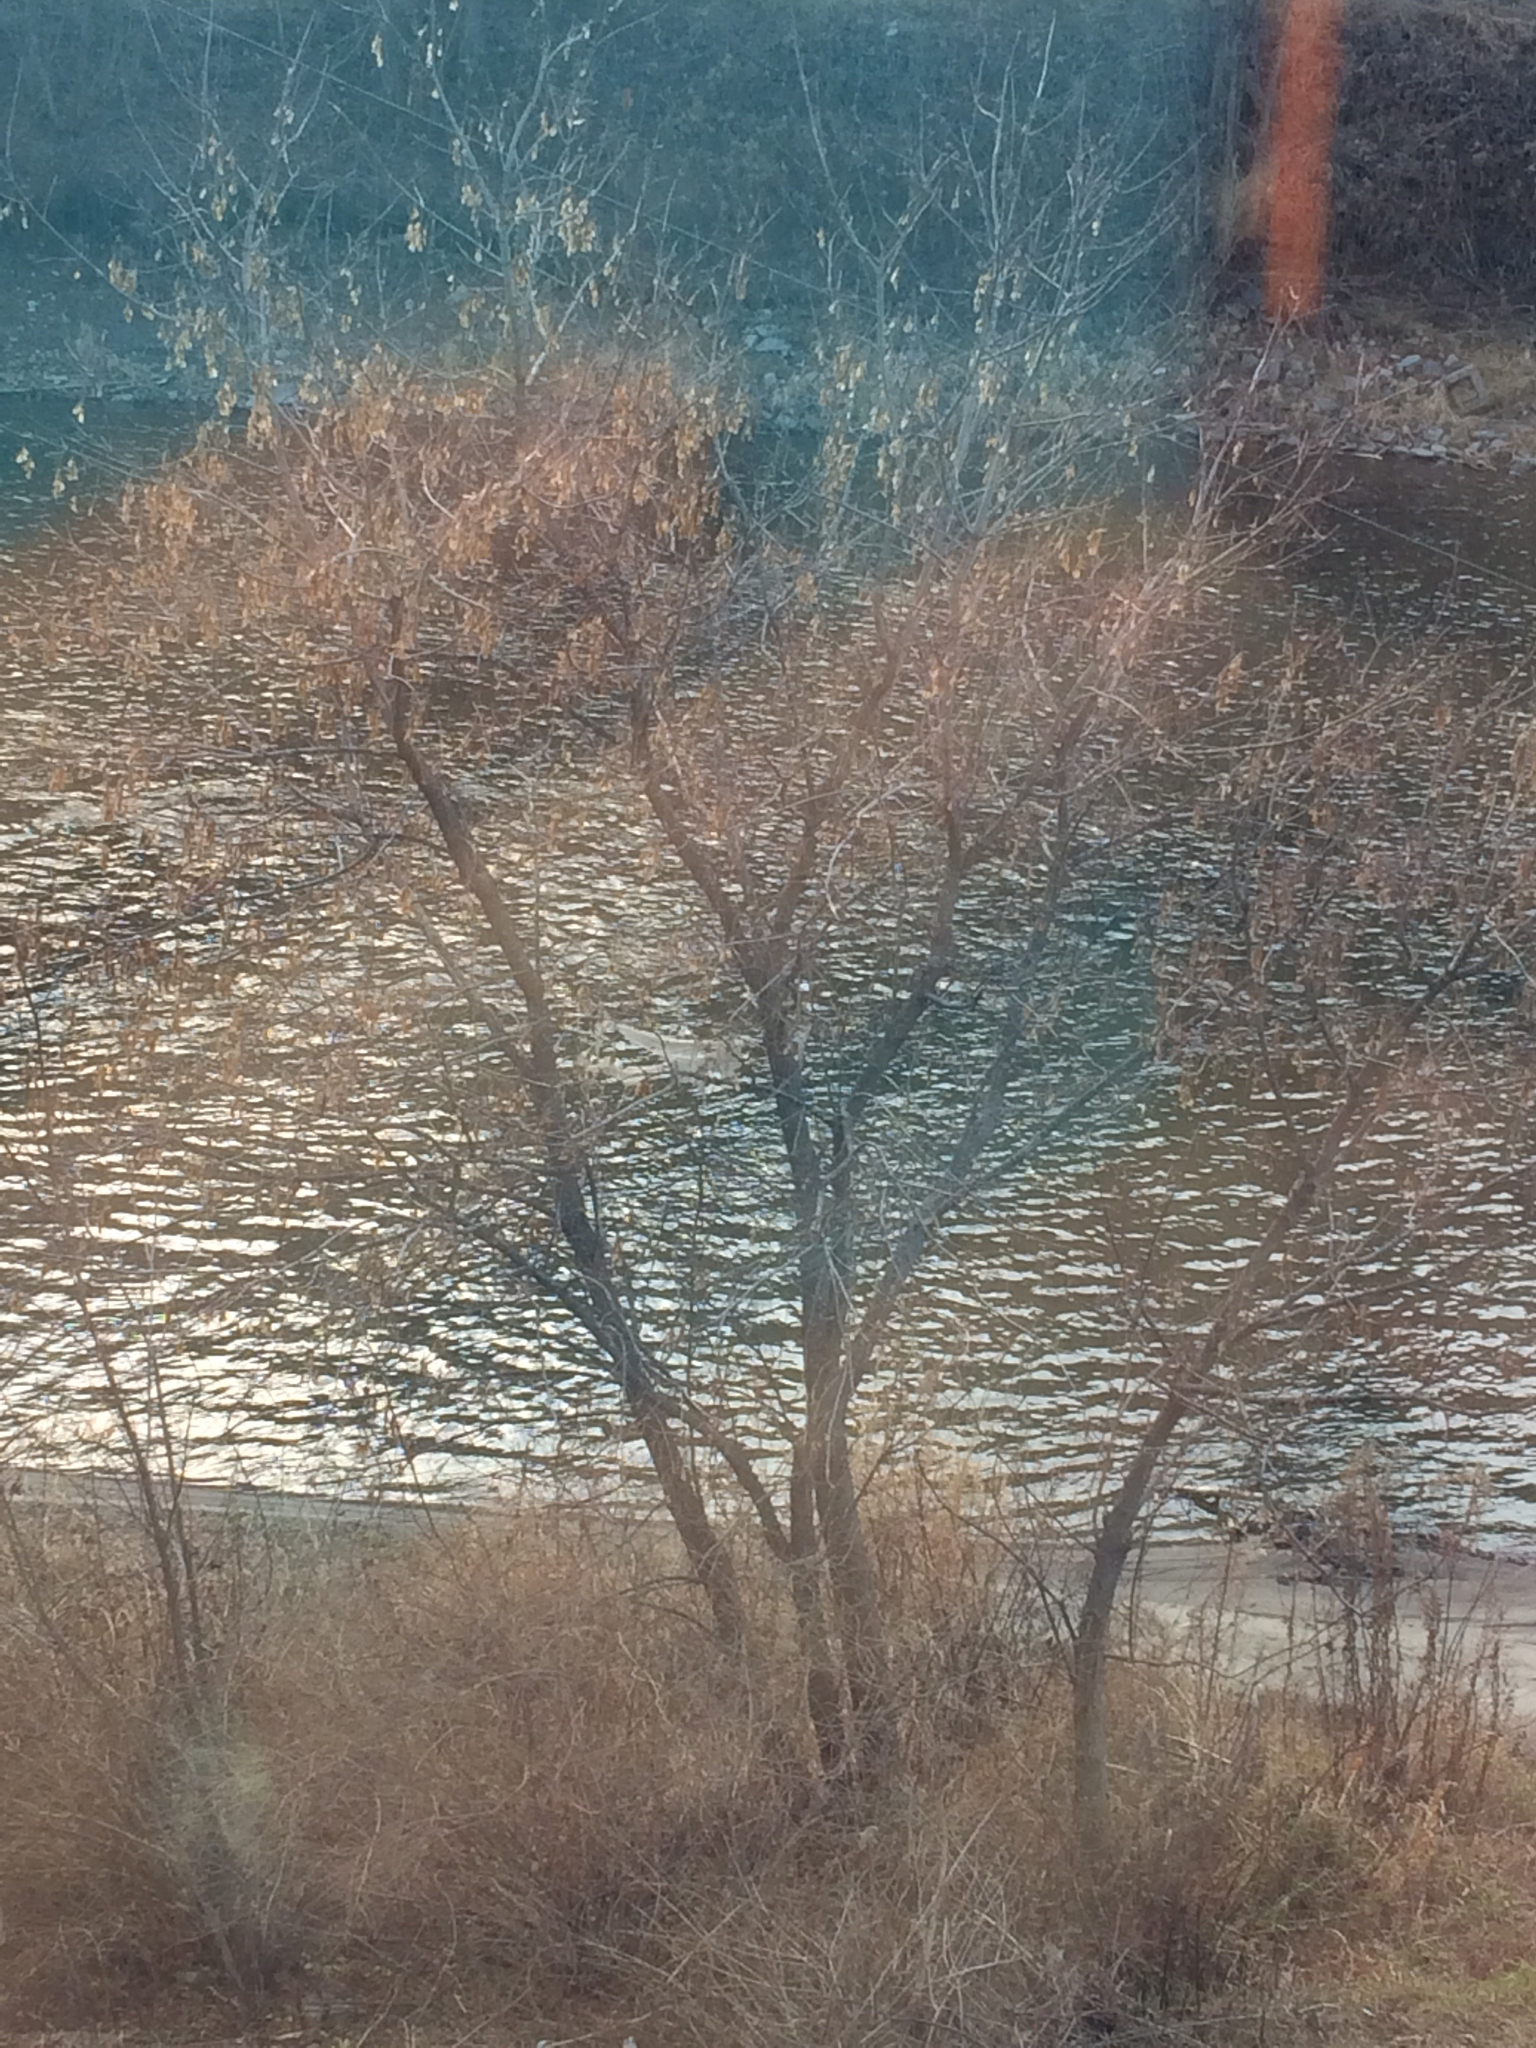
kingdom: Plantae
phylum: Tracheophyta
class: Magnoliopsida
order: Sapindales
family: Sapindaceae
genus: Acer
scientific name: Acer negundo
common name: Ashleaf maple
